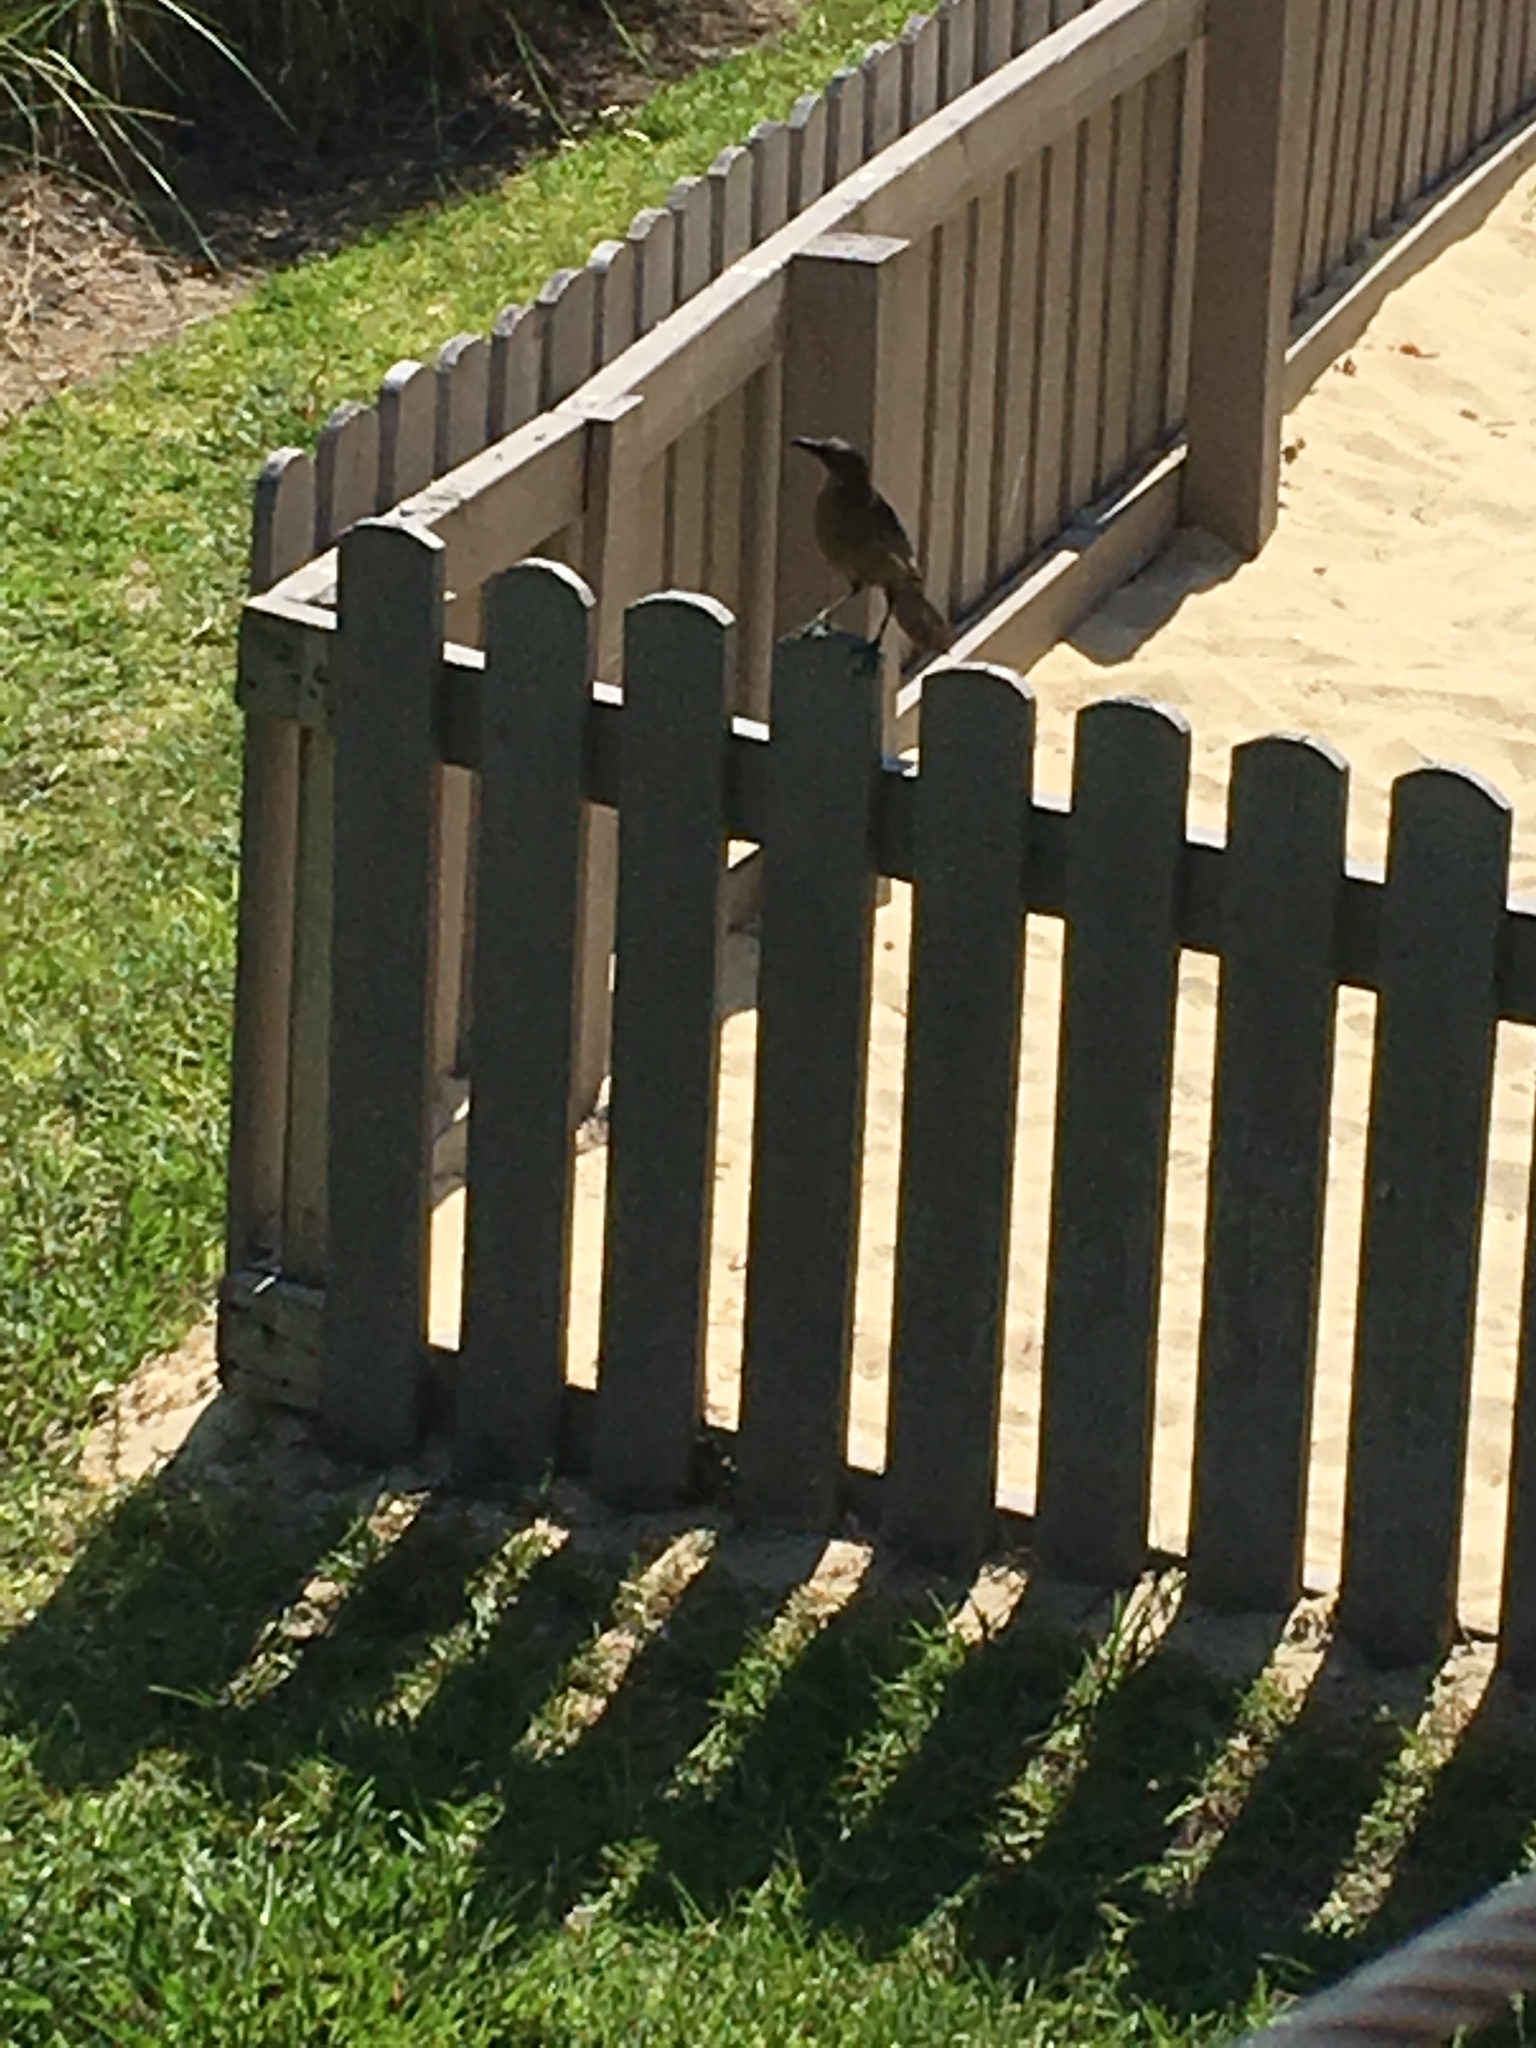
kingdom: Animalia
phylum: Chordata
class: Aves
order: Passeriformes
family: Icteridae
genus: Quiscalus
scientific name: Quiscalus major
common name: Boat-tailed grackle
